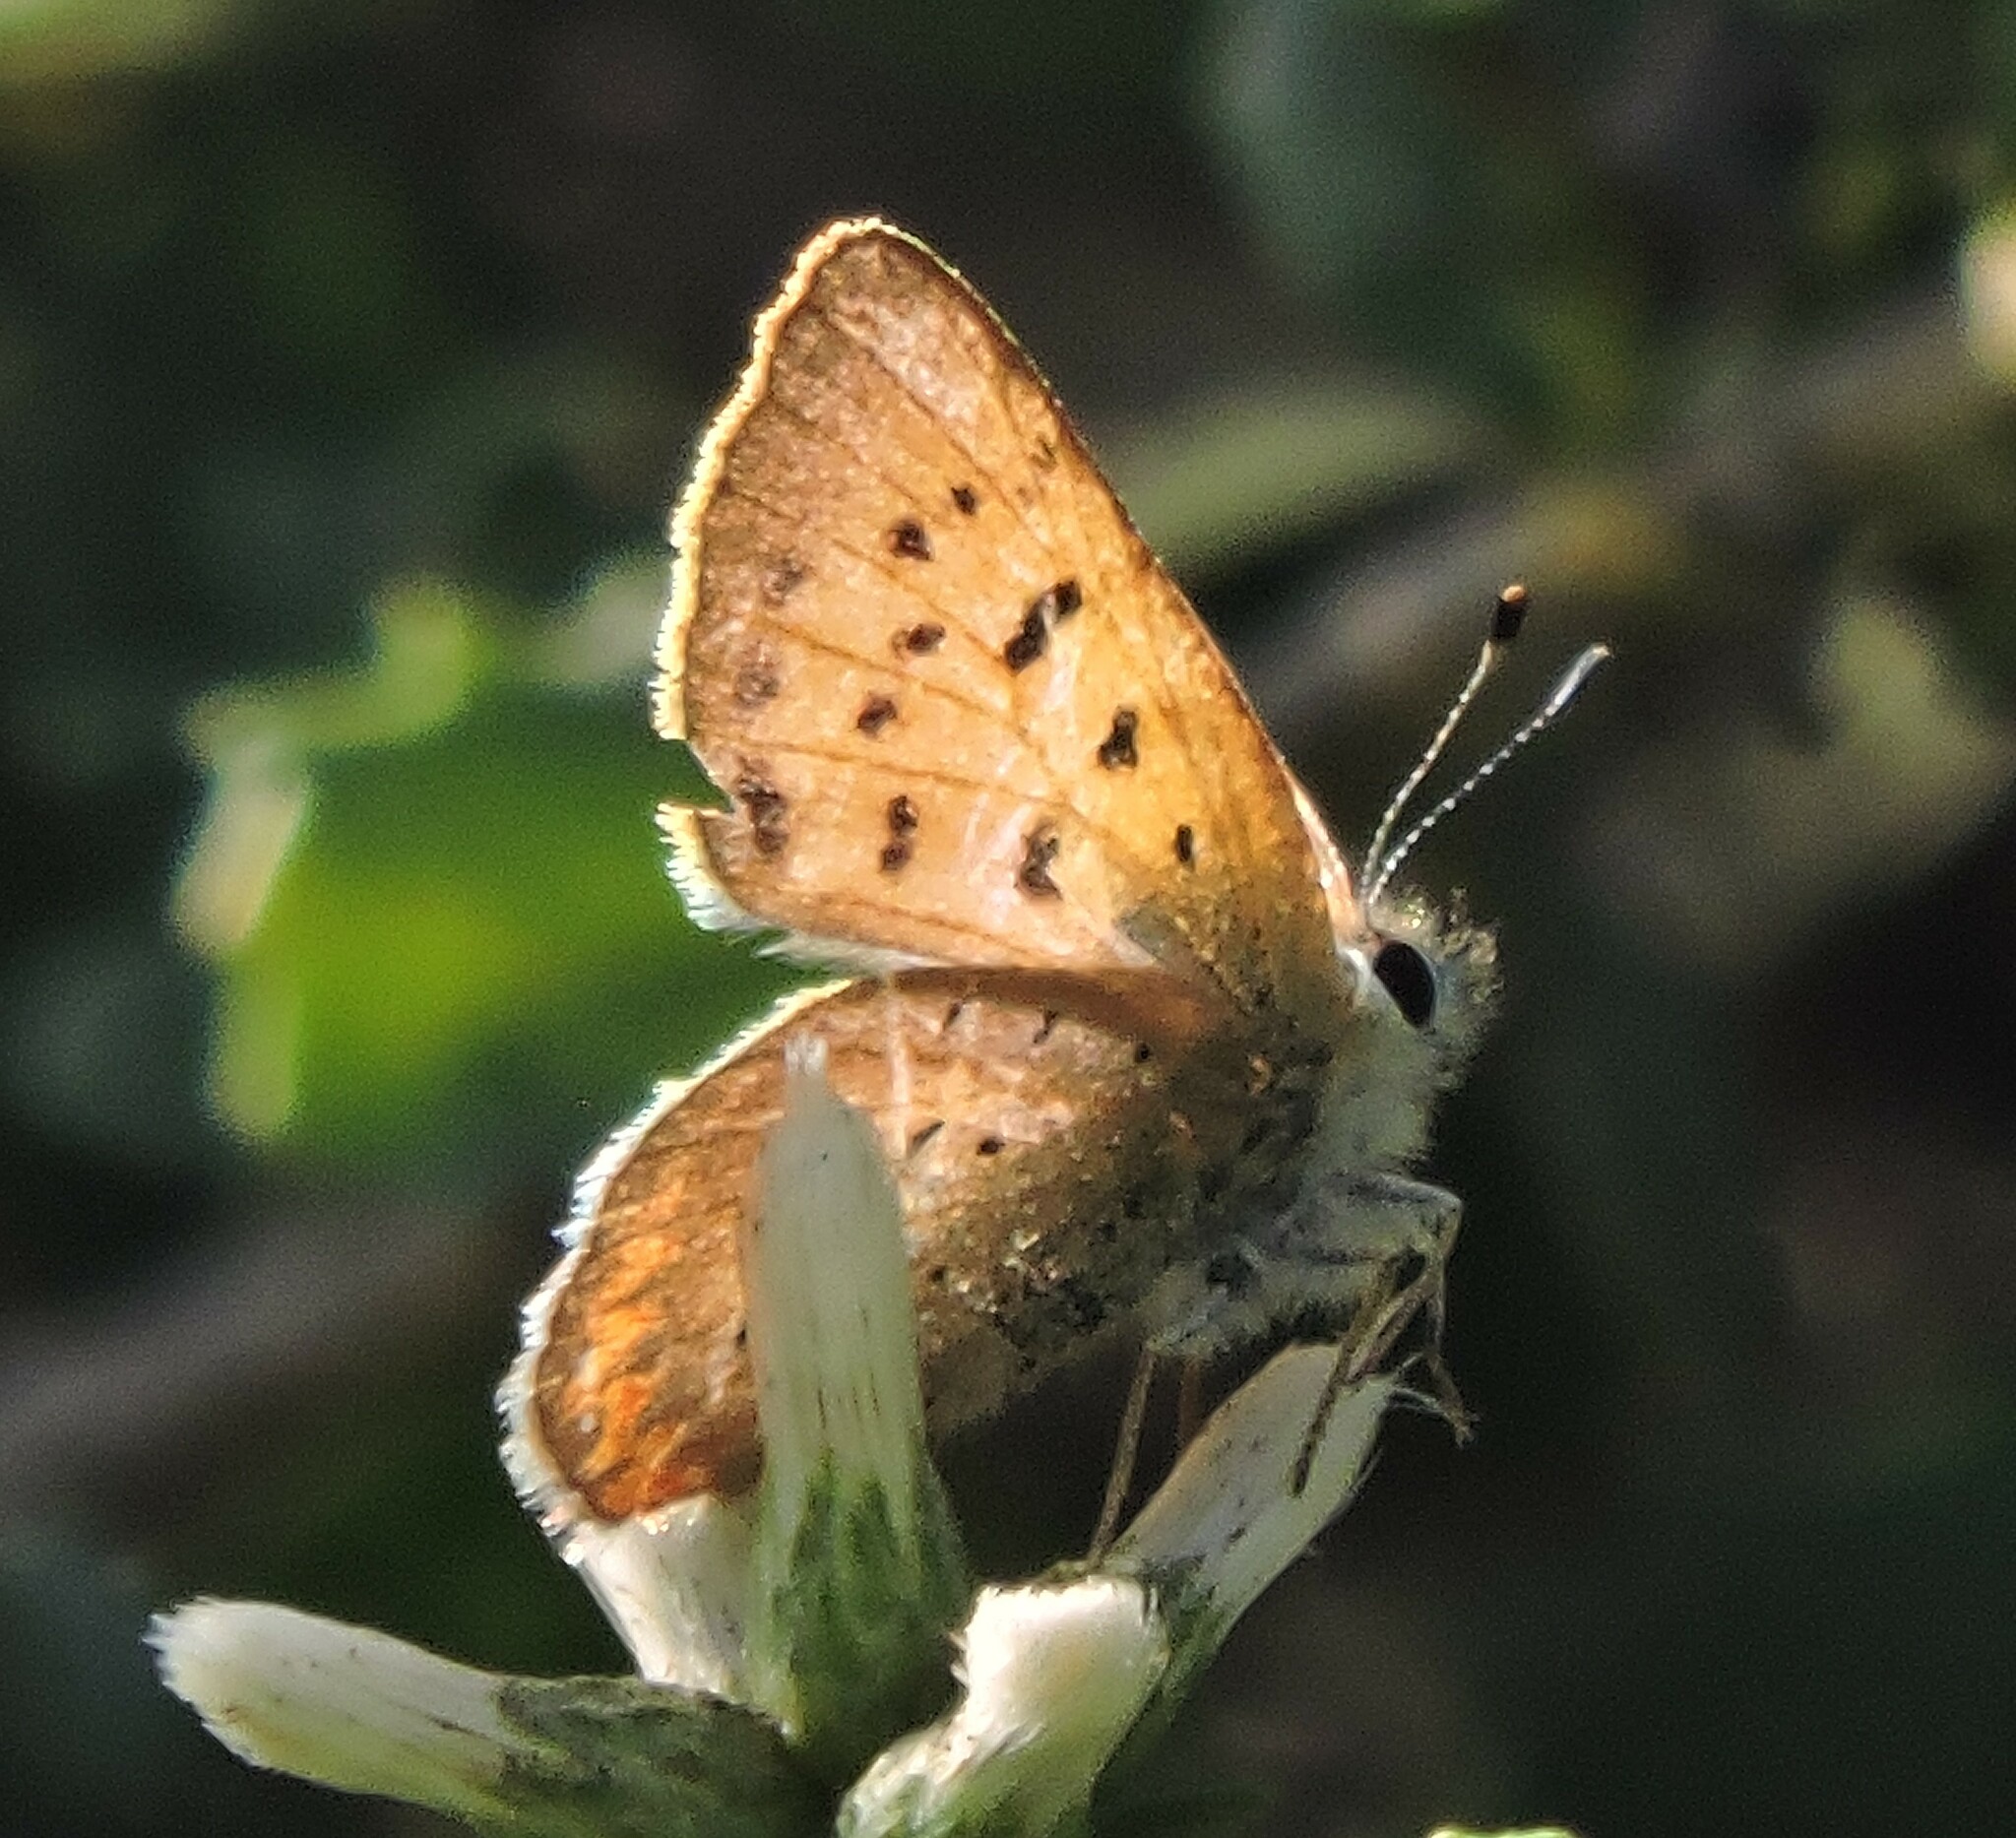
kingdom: Animalia
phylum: Arthropoda
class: Insecta
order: Lepidoptera
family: Lycaenidae
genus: Tharsalea
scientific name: Tharsalea helloides
